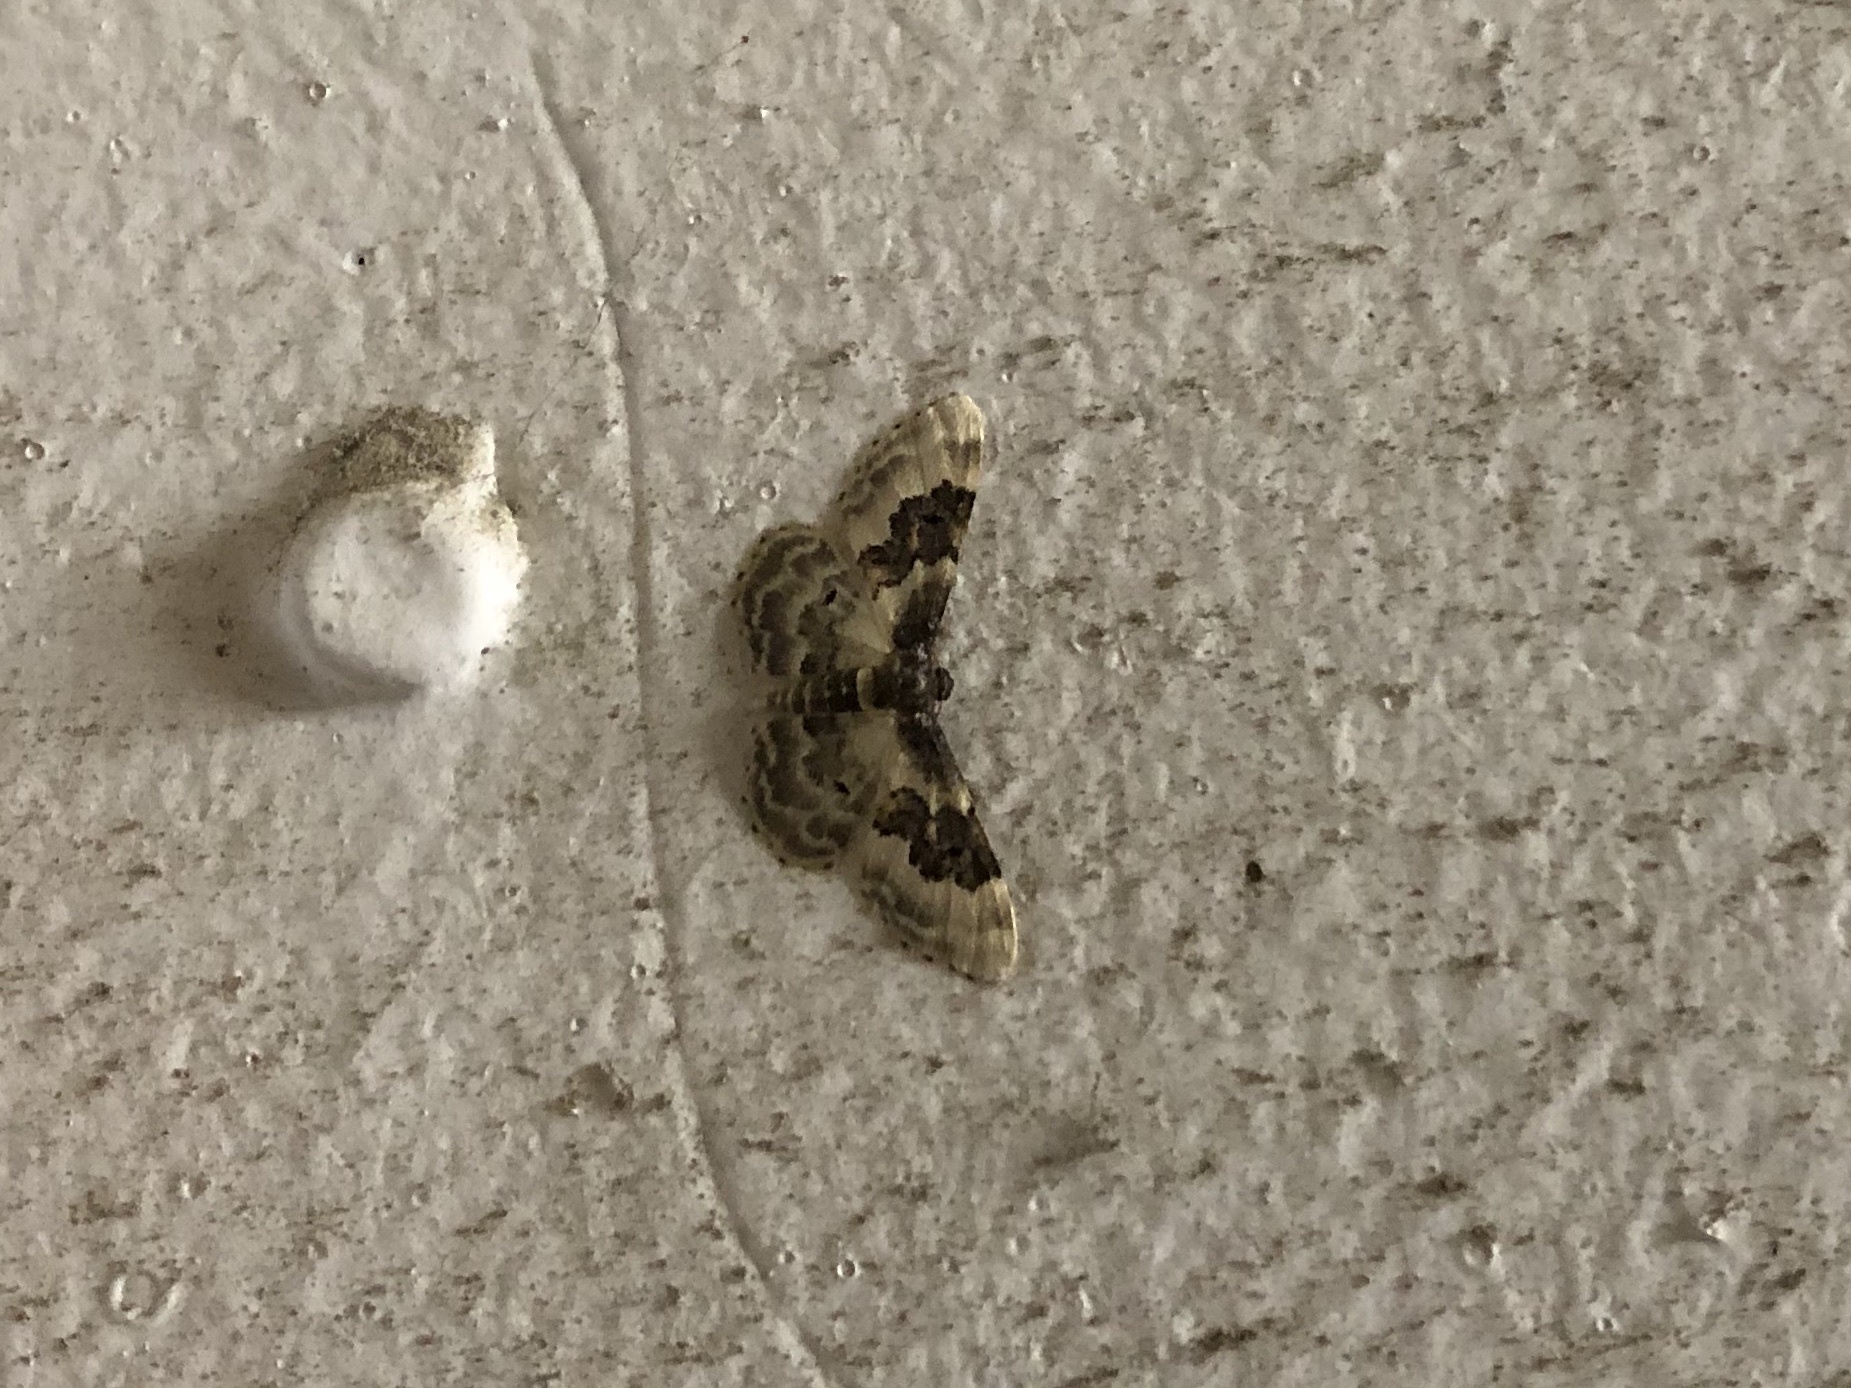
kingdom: Animalia
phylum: Arthropoda
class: Insecta
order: Lepidoptera
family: Geometridae
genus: Idaea
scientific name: Idaea rusticata
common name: Least carpet
